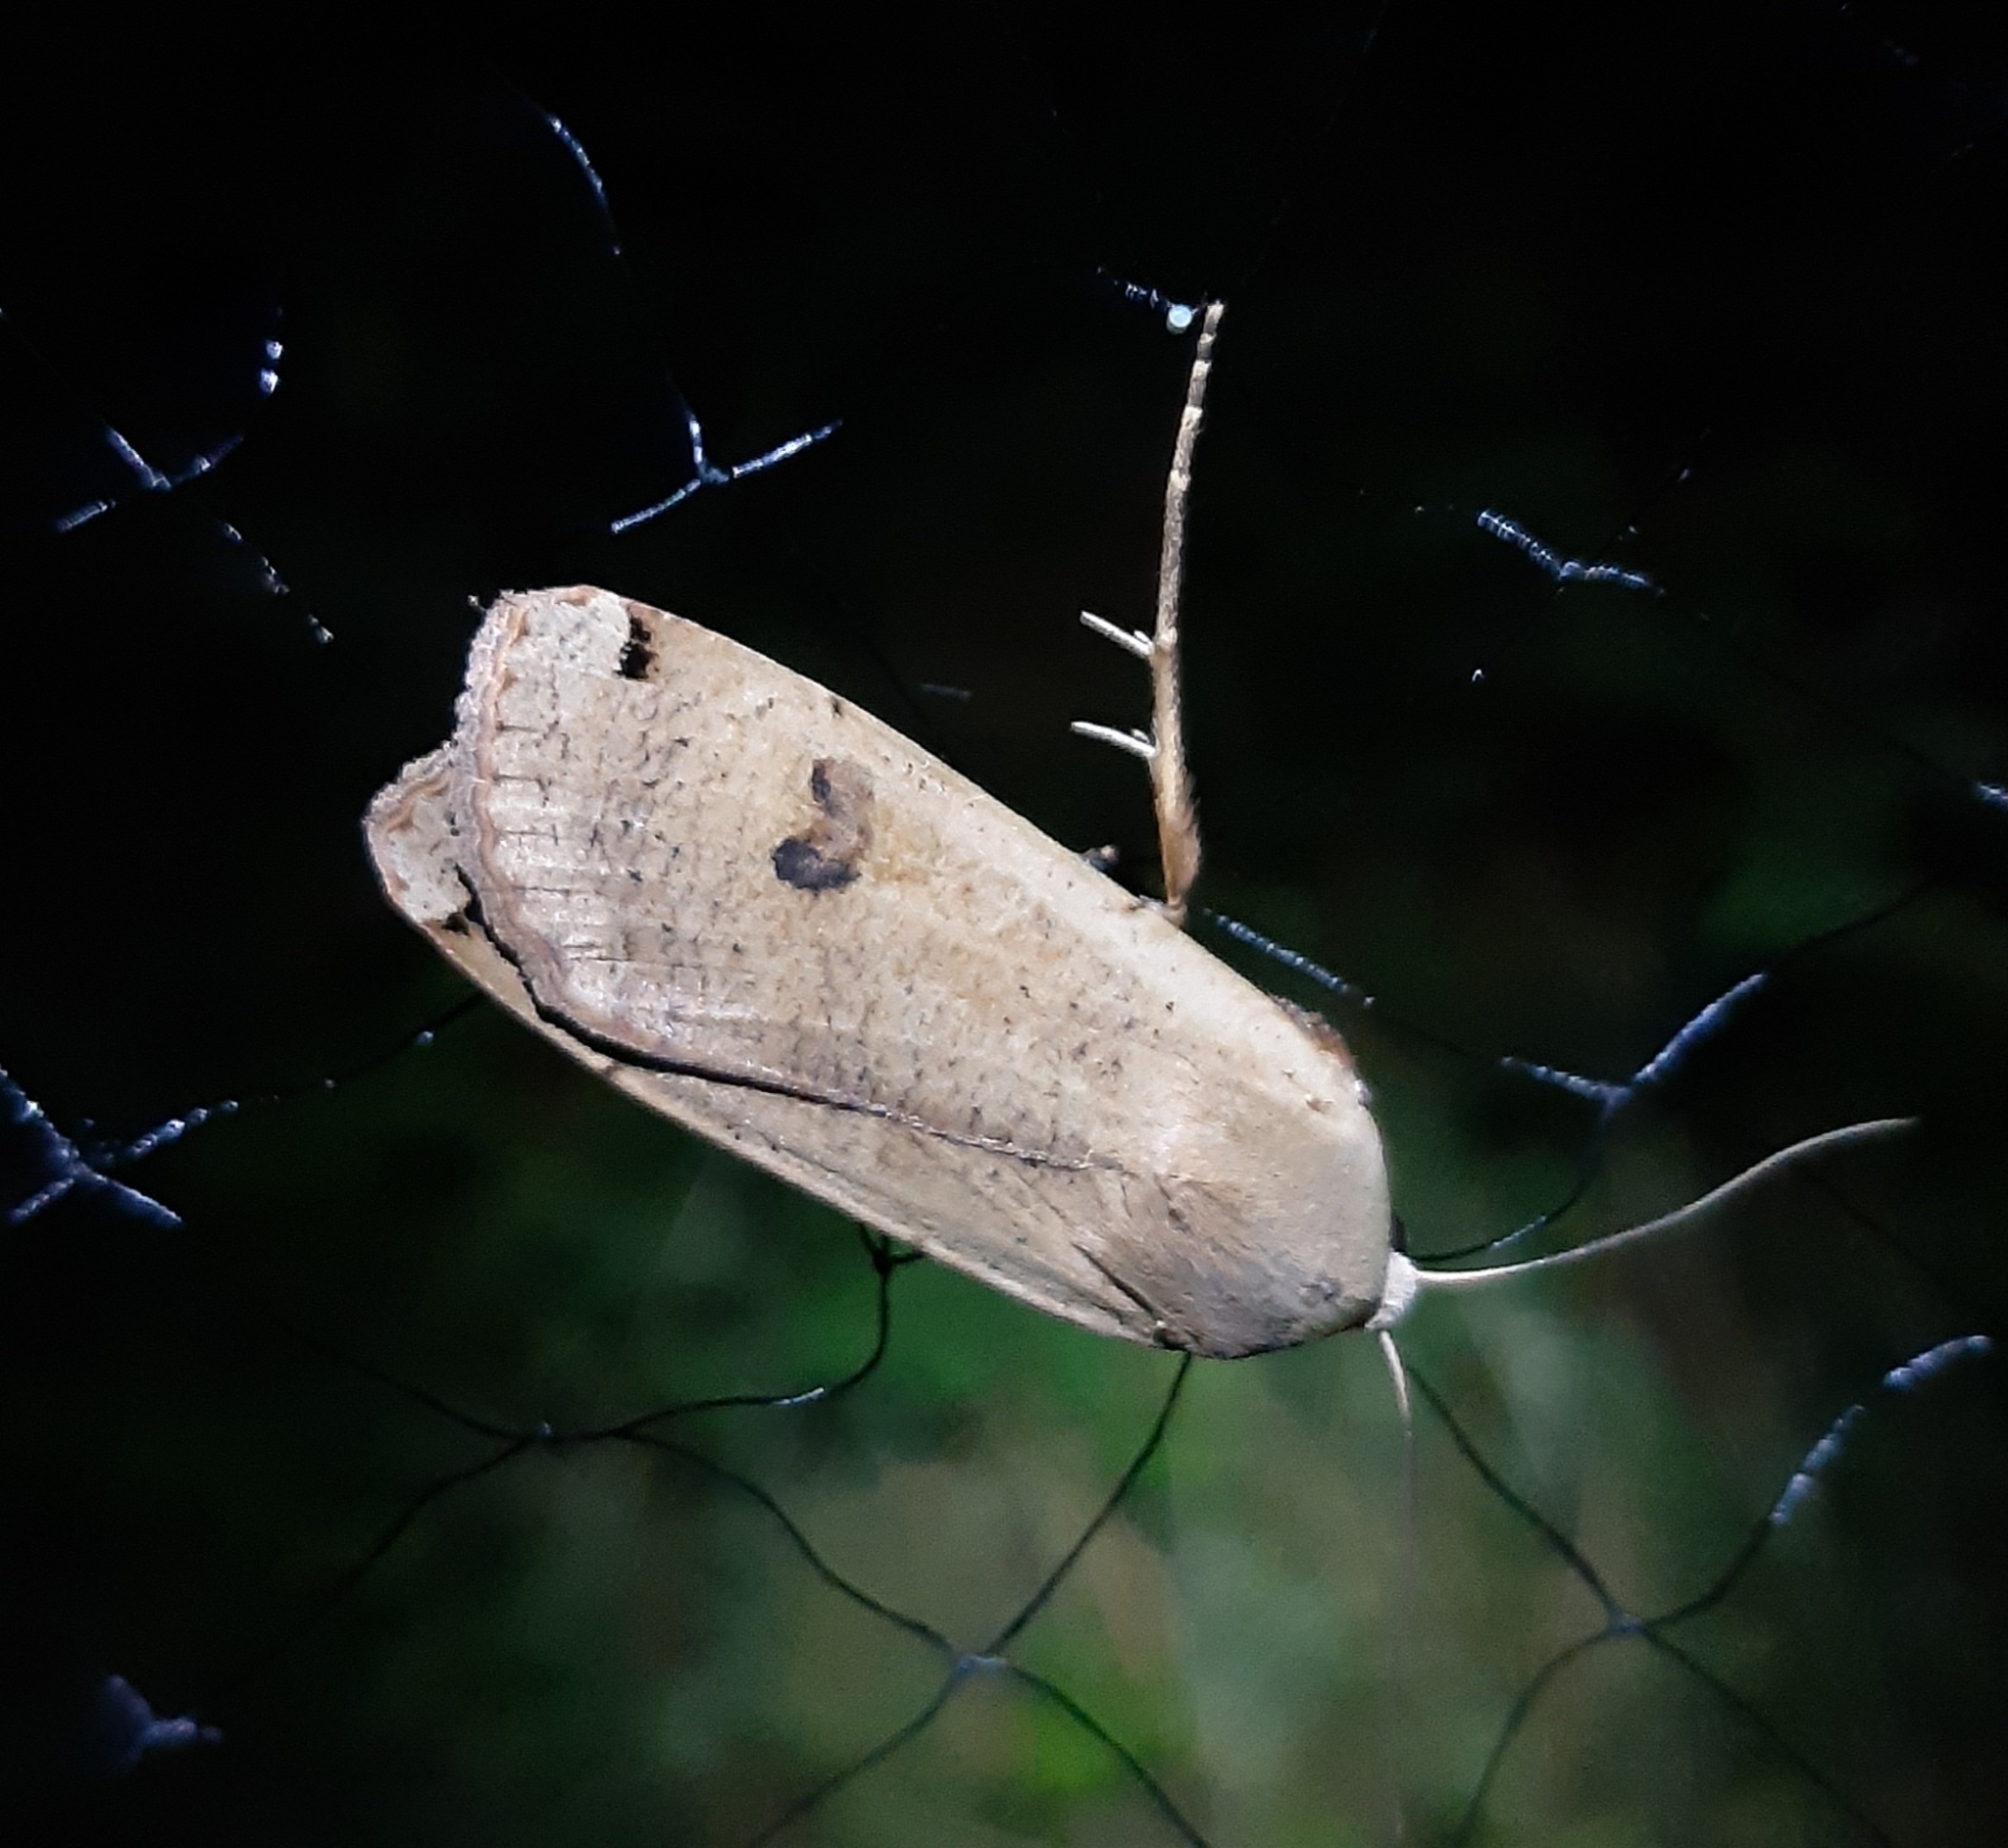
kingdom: Animalia
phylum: Arthropoda
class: Insecta
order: Lepidoptera
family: Noctuidae
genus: Noctua
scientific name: Noctua pronuba
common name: Large yellow underwing
